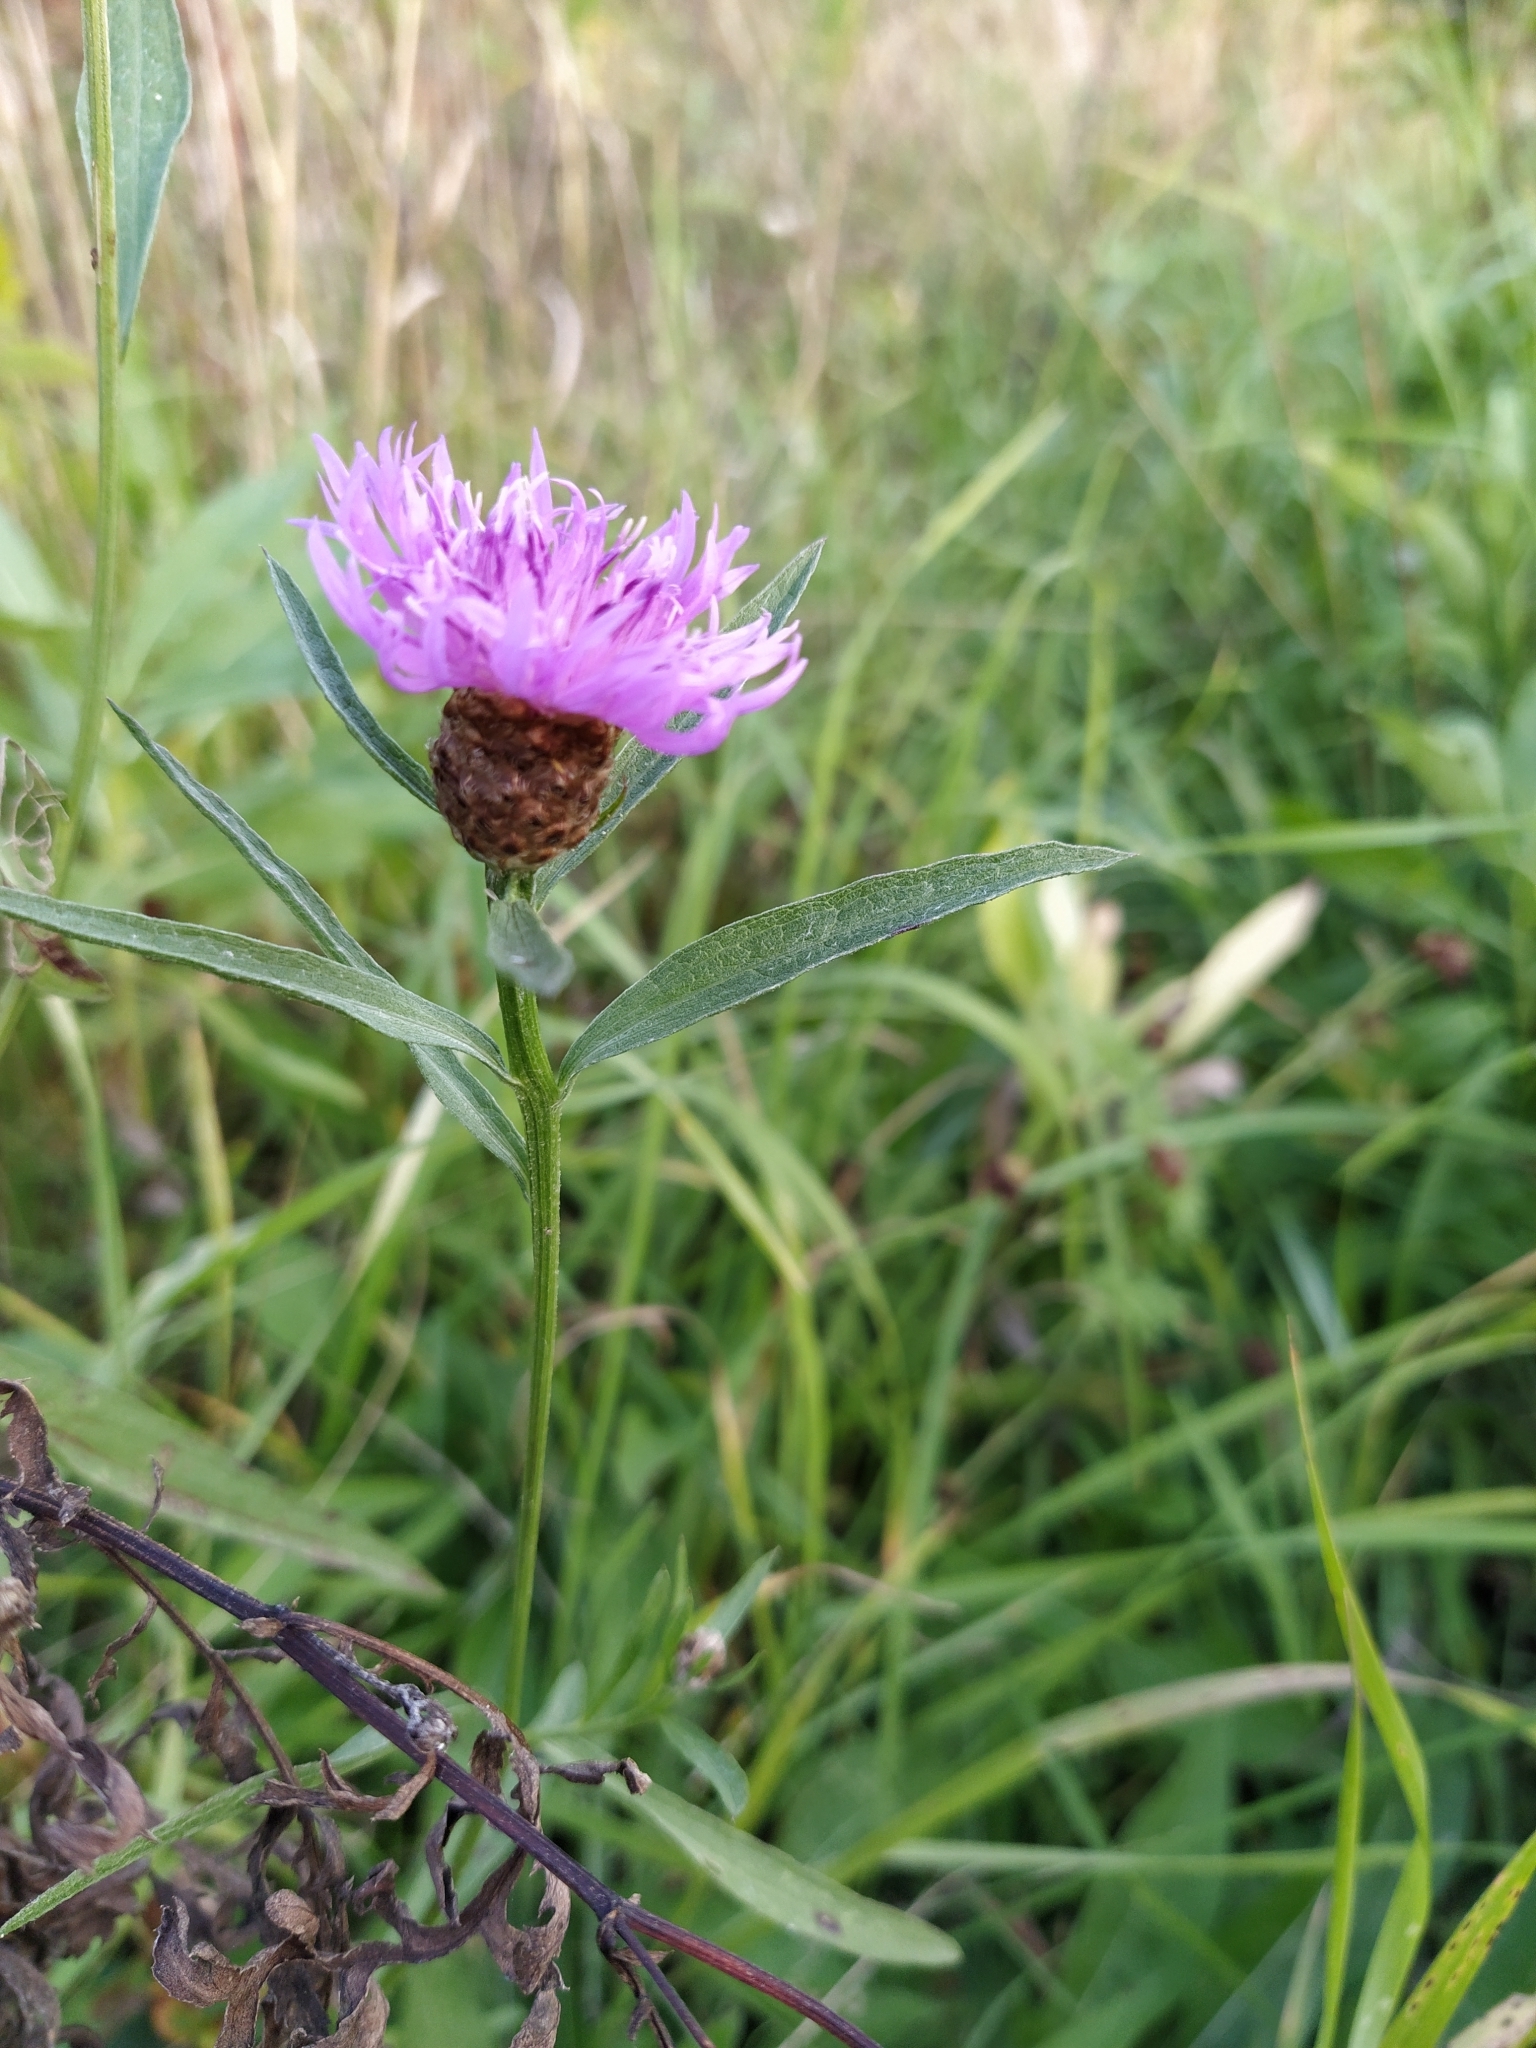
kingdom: Plantae
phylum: Tracheophyta
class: Magnoliopsida
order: Asterales
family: Asteraceae
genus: Centaurea
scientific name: Centaurea jacea
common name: Brown knapweed
